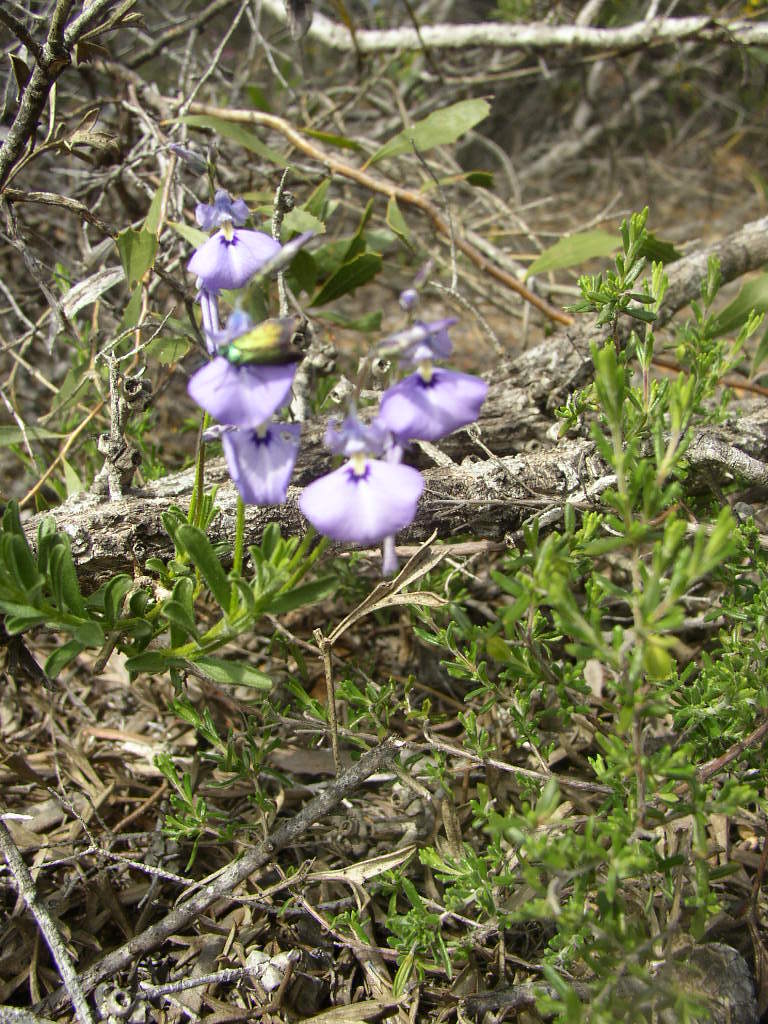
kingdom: Plantae
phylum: Tracheophyta
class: Magnoliopsida
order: Malpighiales
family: Violaceae
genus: Pigea
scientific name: Pigea calycina
